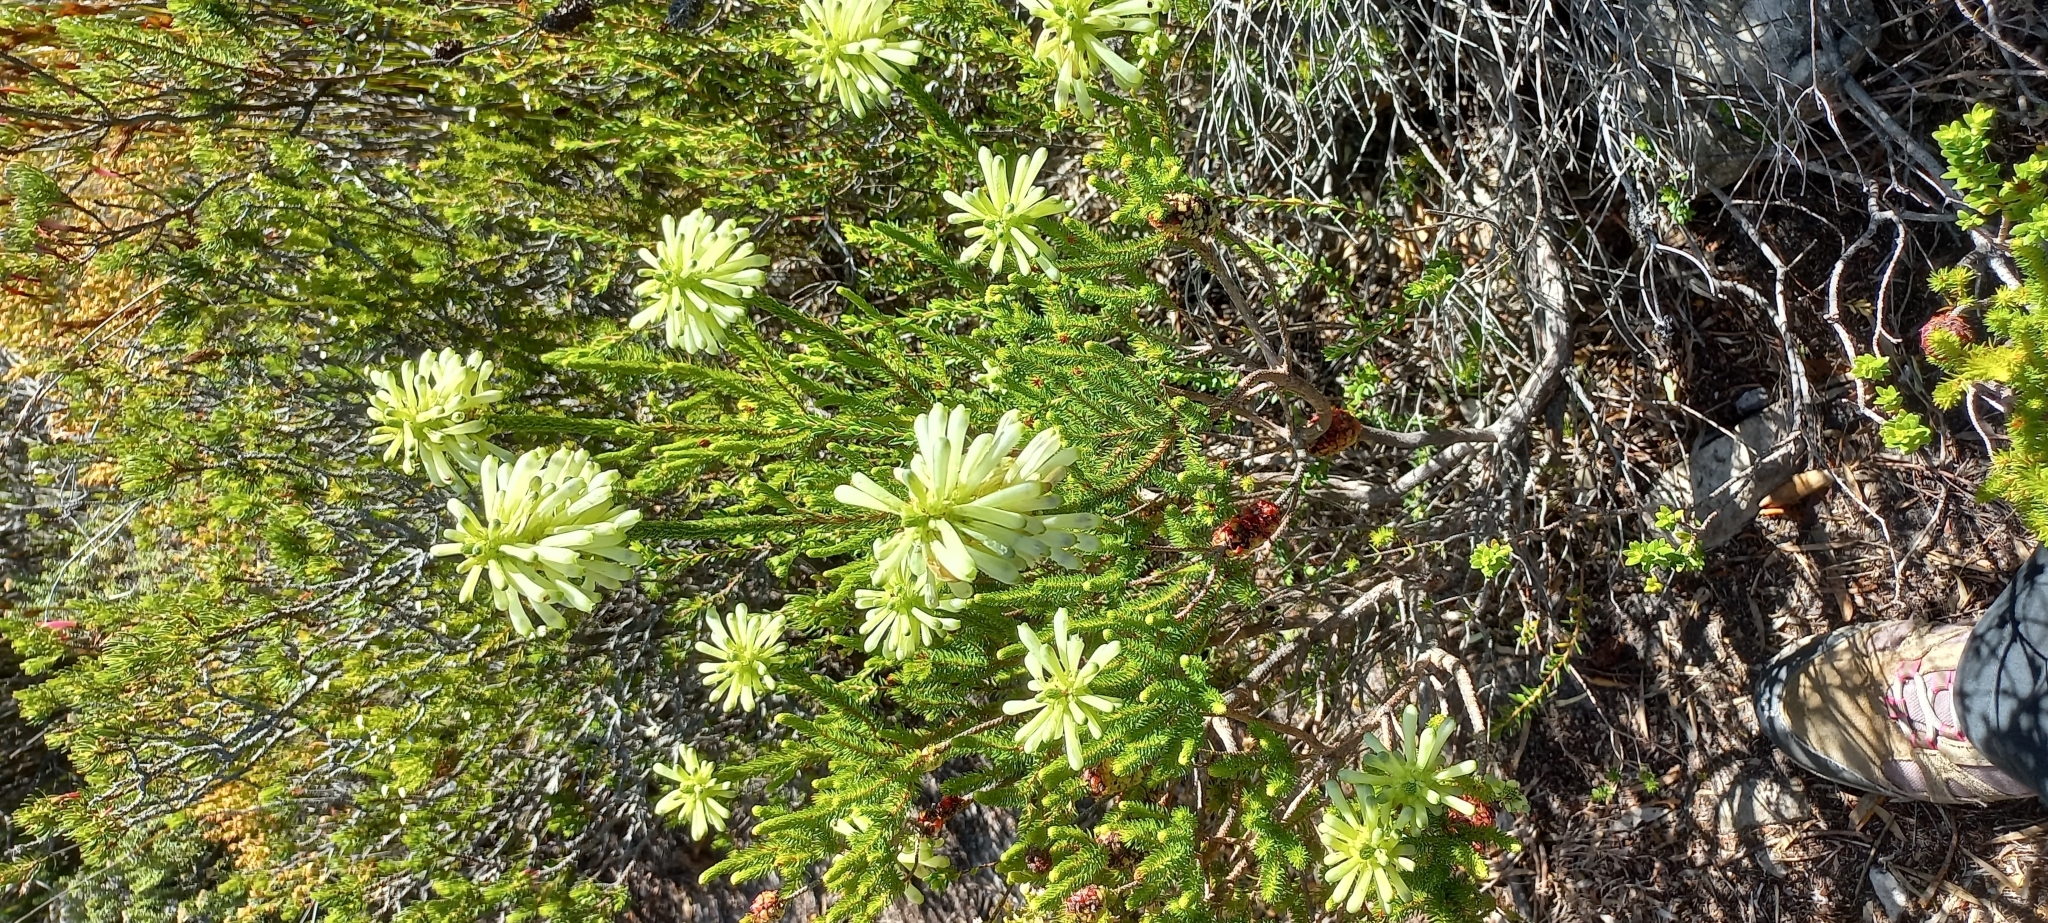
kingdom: Plantae
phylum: Tracheophyta
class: Magnoliopsida
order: Ericales
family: Ericaceae
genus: Erica
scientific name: Erica sessiliflora
